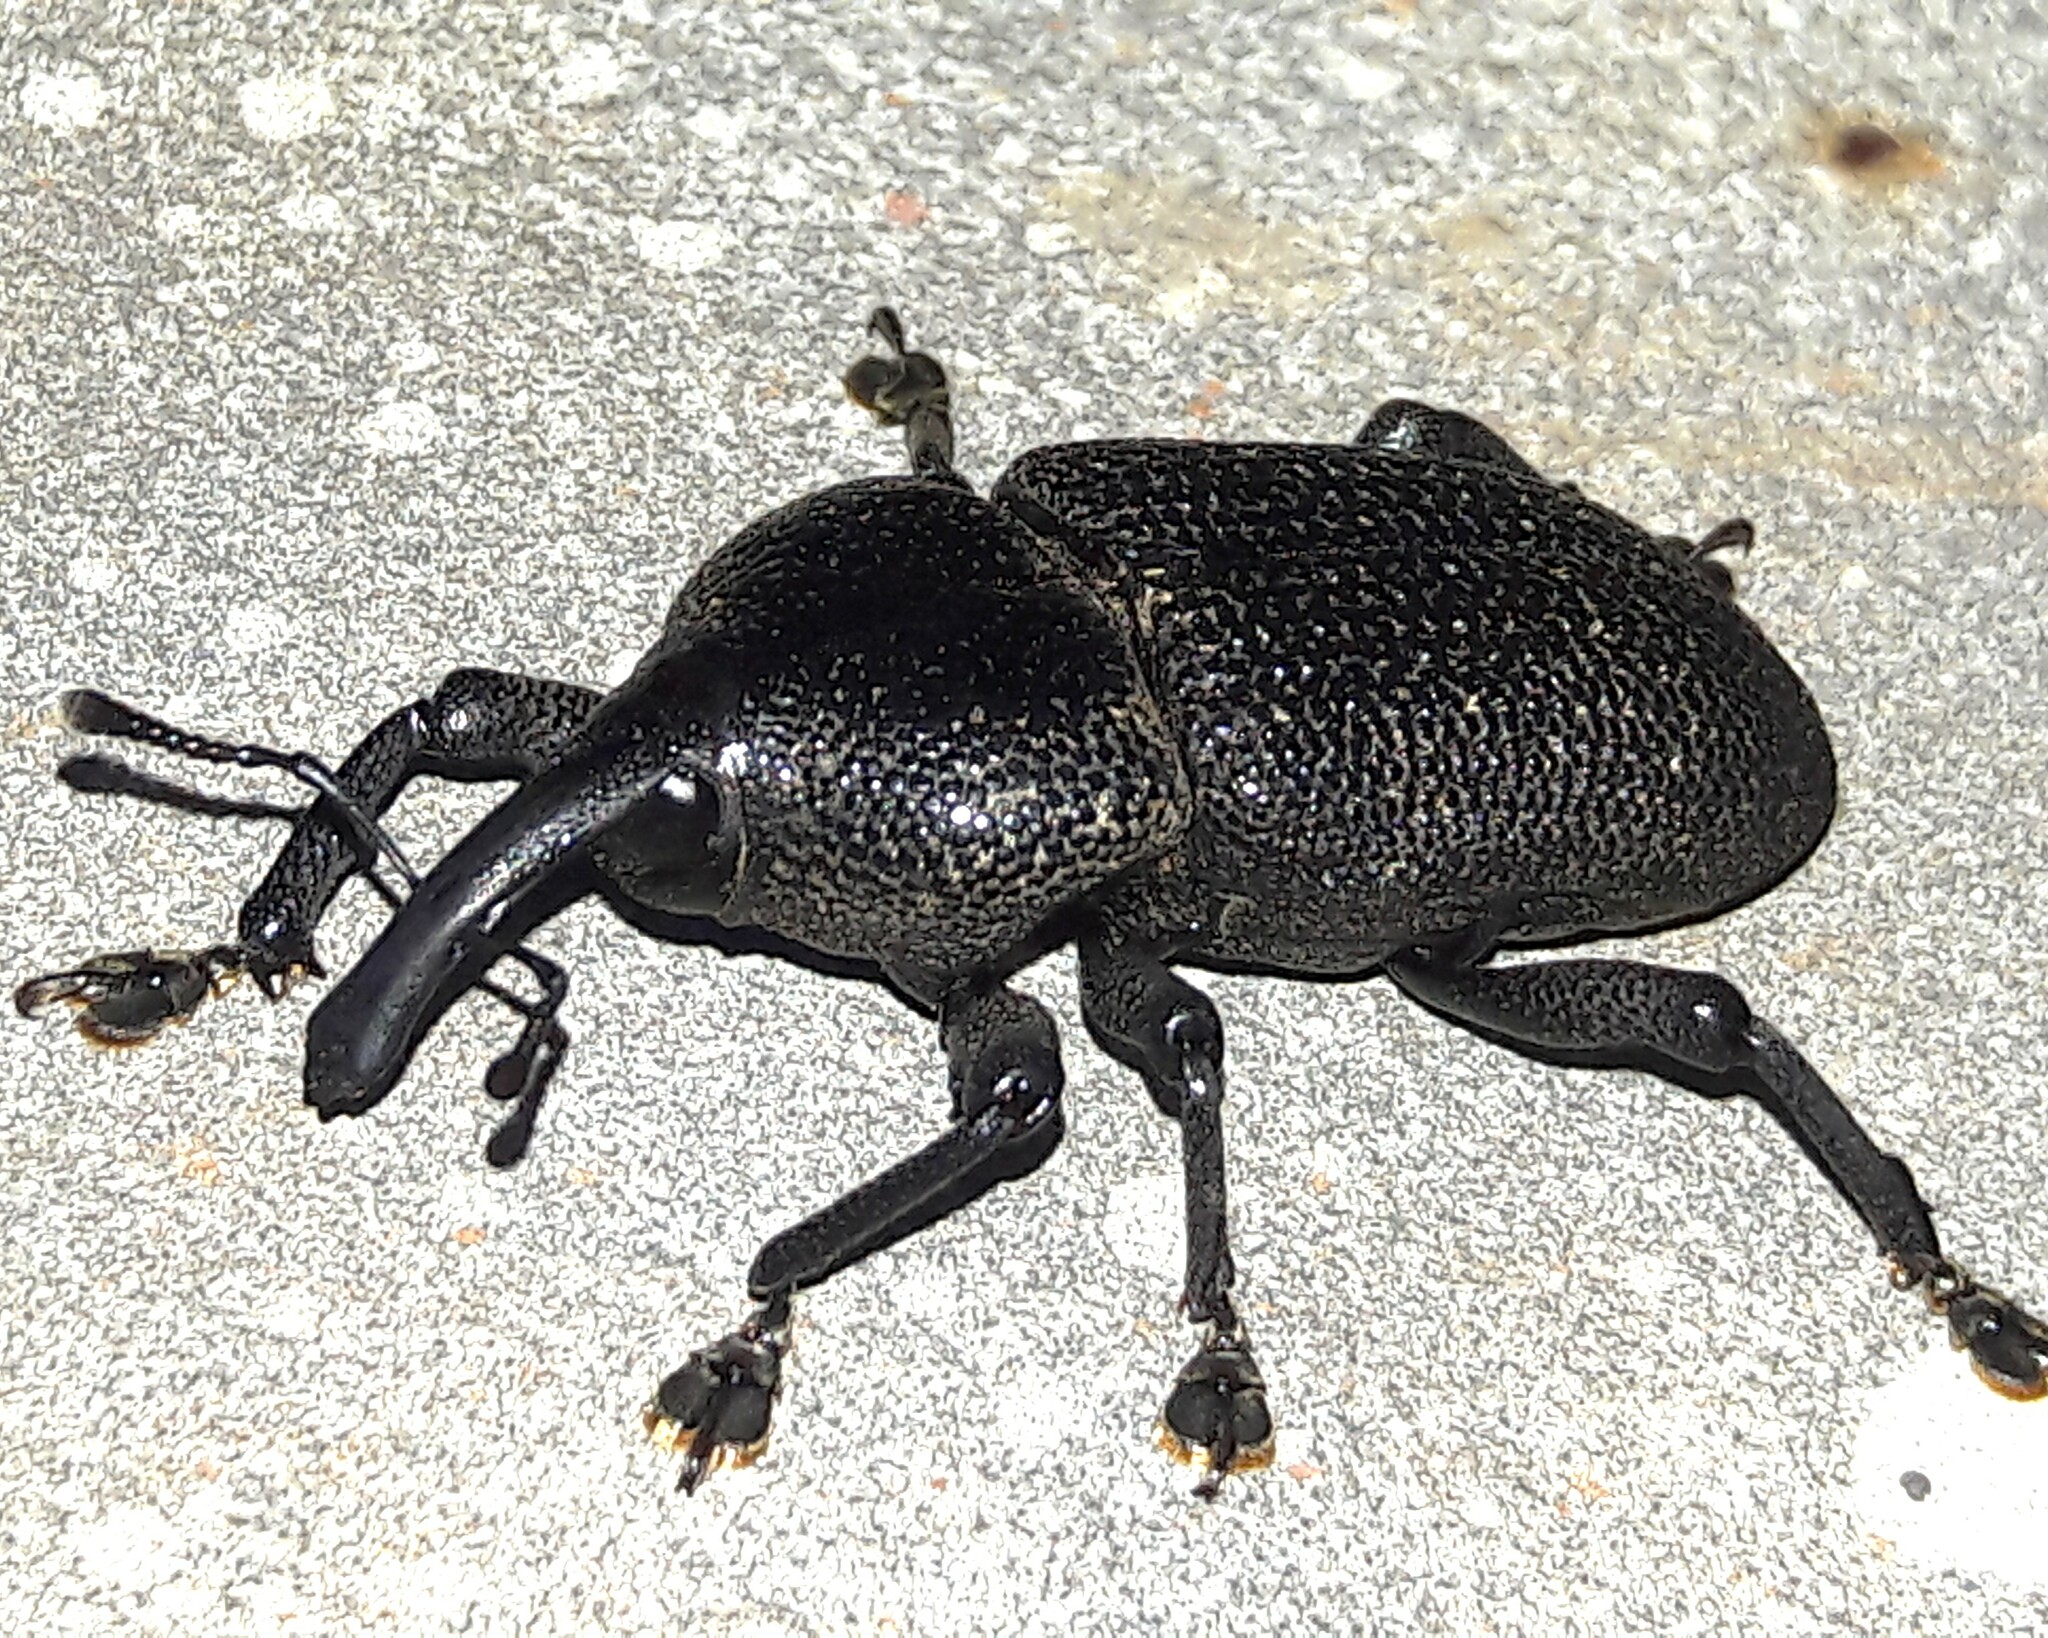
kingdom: Animalia
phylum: Arthropoda
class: Insecta
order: Coleoptera
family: Curculionidae
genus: Homalinotus
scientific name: Homalinotus coriaceus
